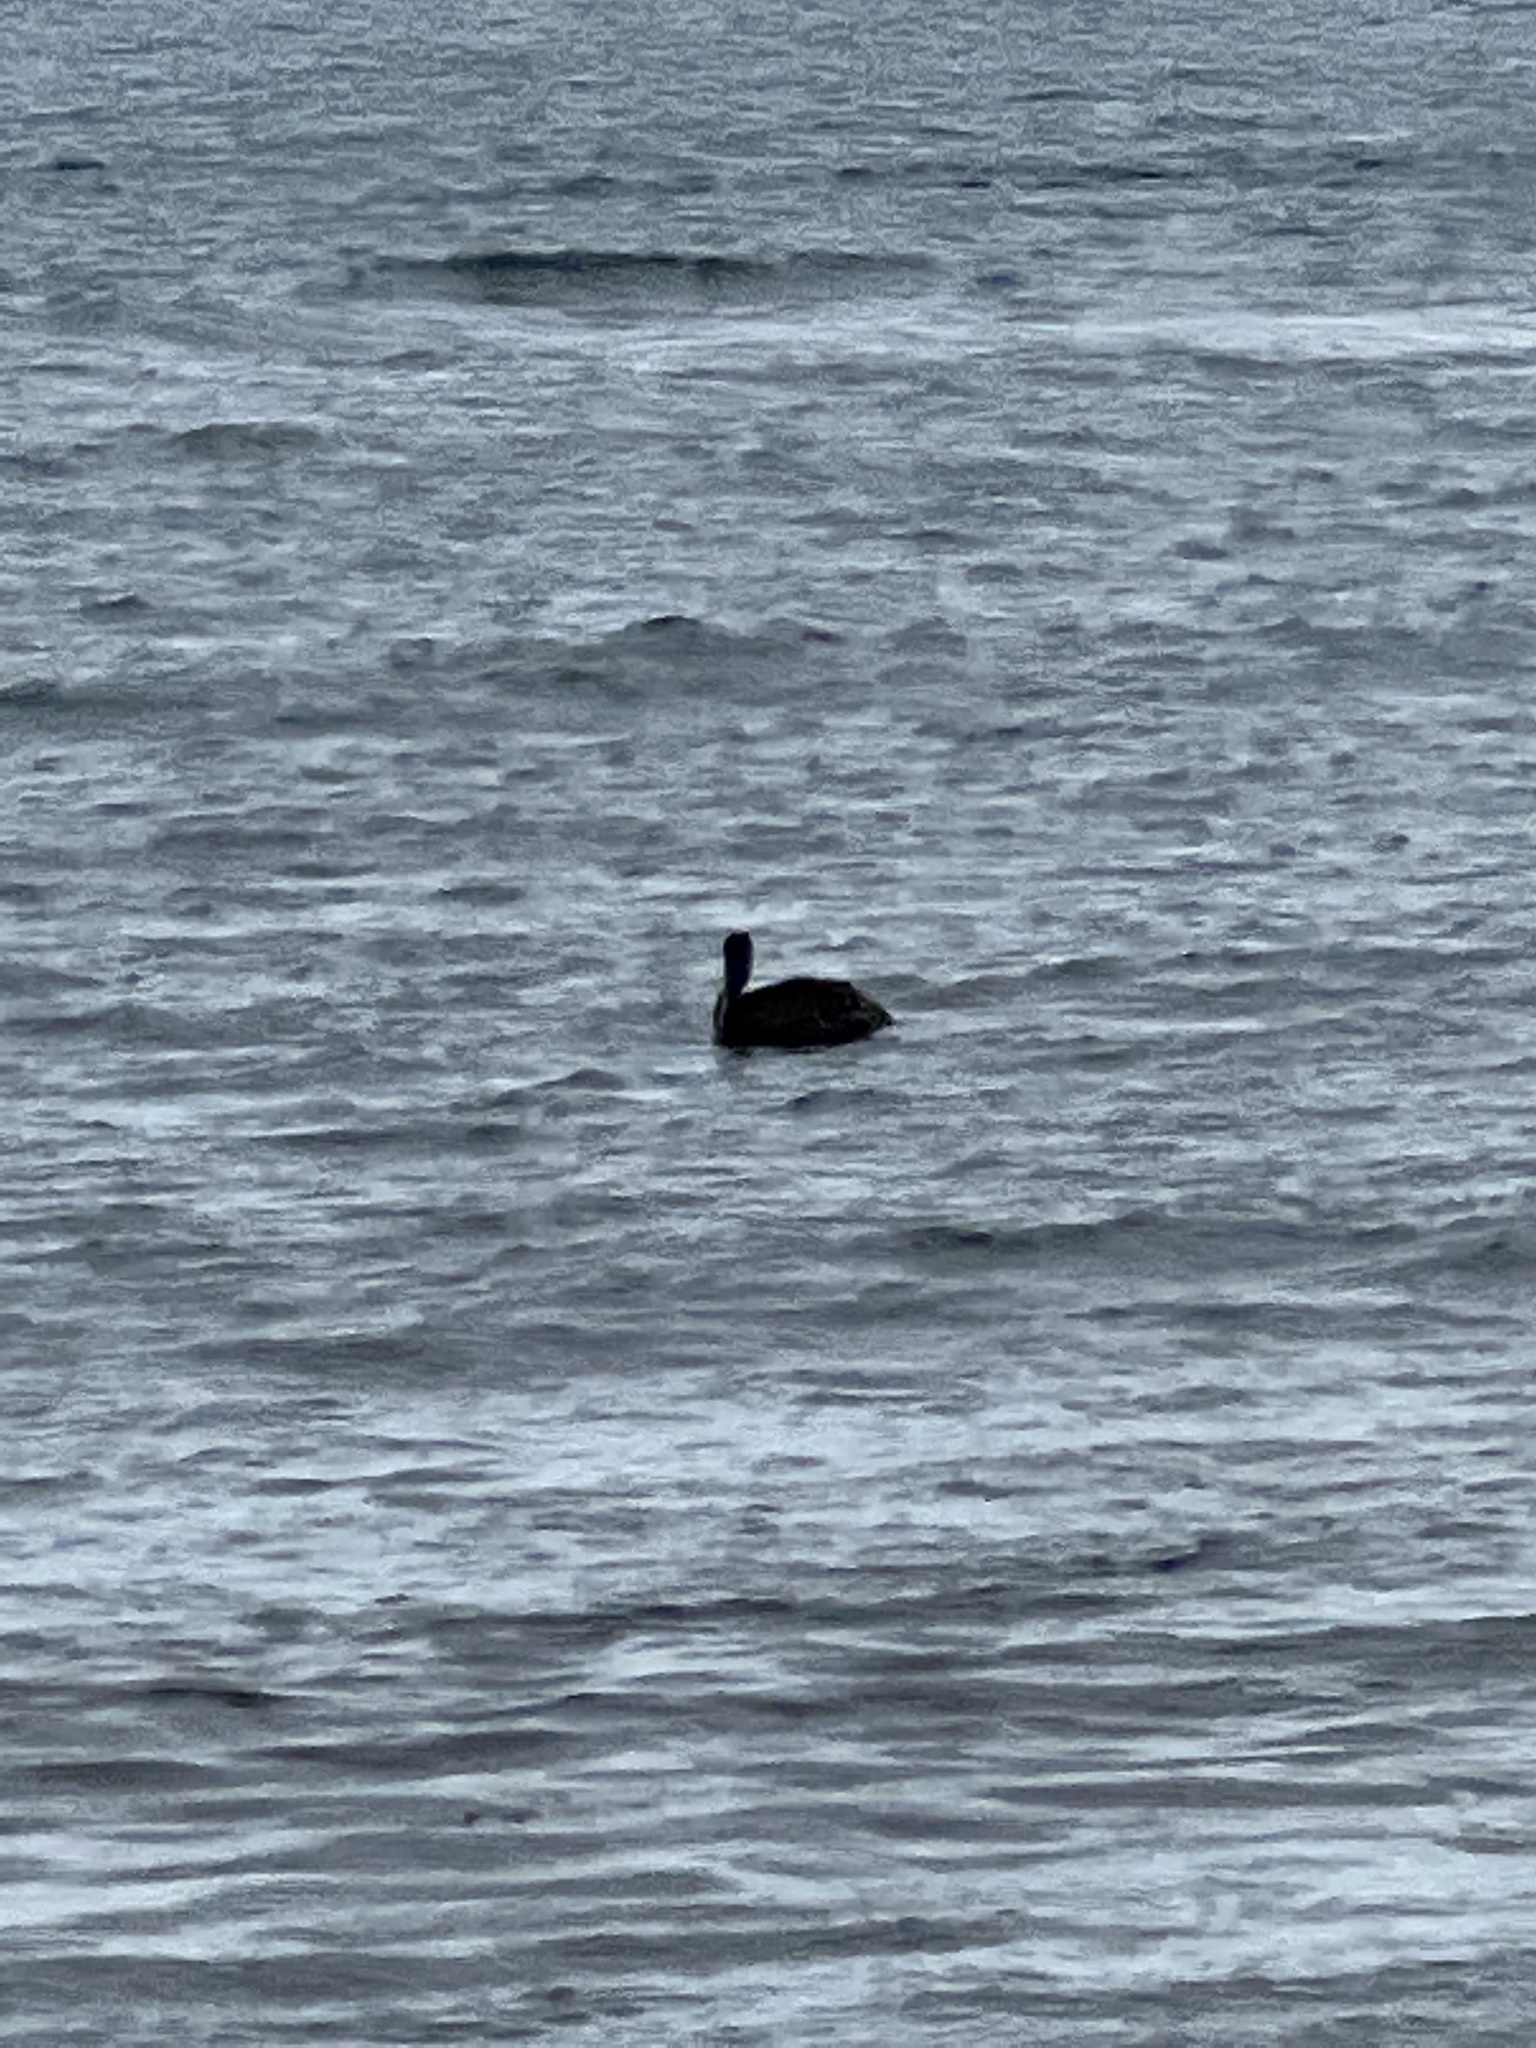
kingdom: Animalia
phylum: Chordata
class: Aves
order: Pelecaniformes
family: Pelecanidae
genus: Pelecanus
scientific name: Pelecanus occidentalis
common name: Brown pelican
